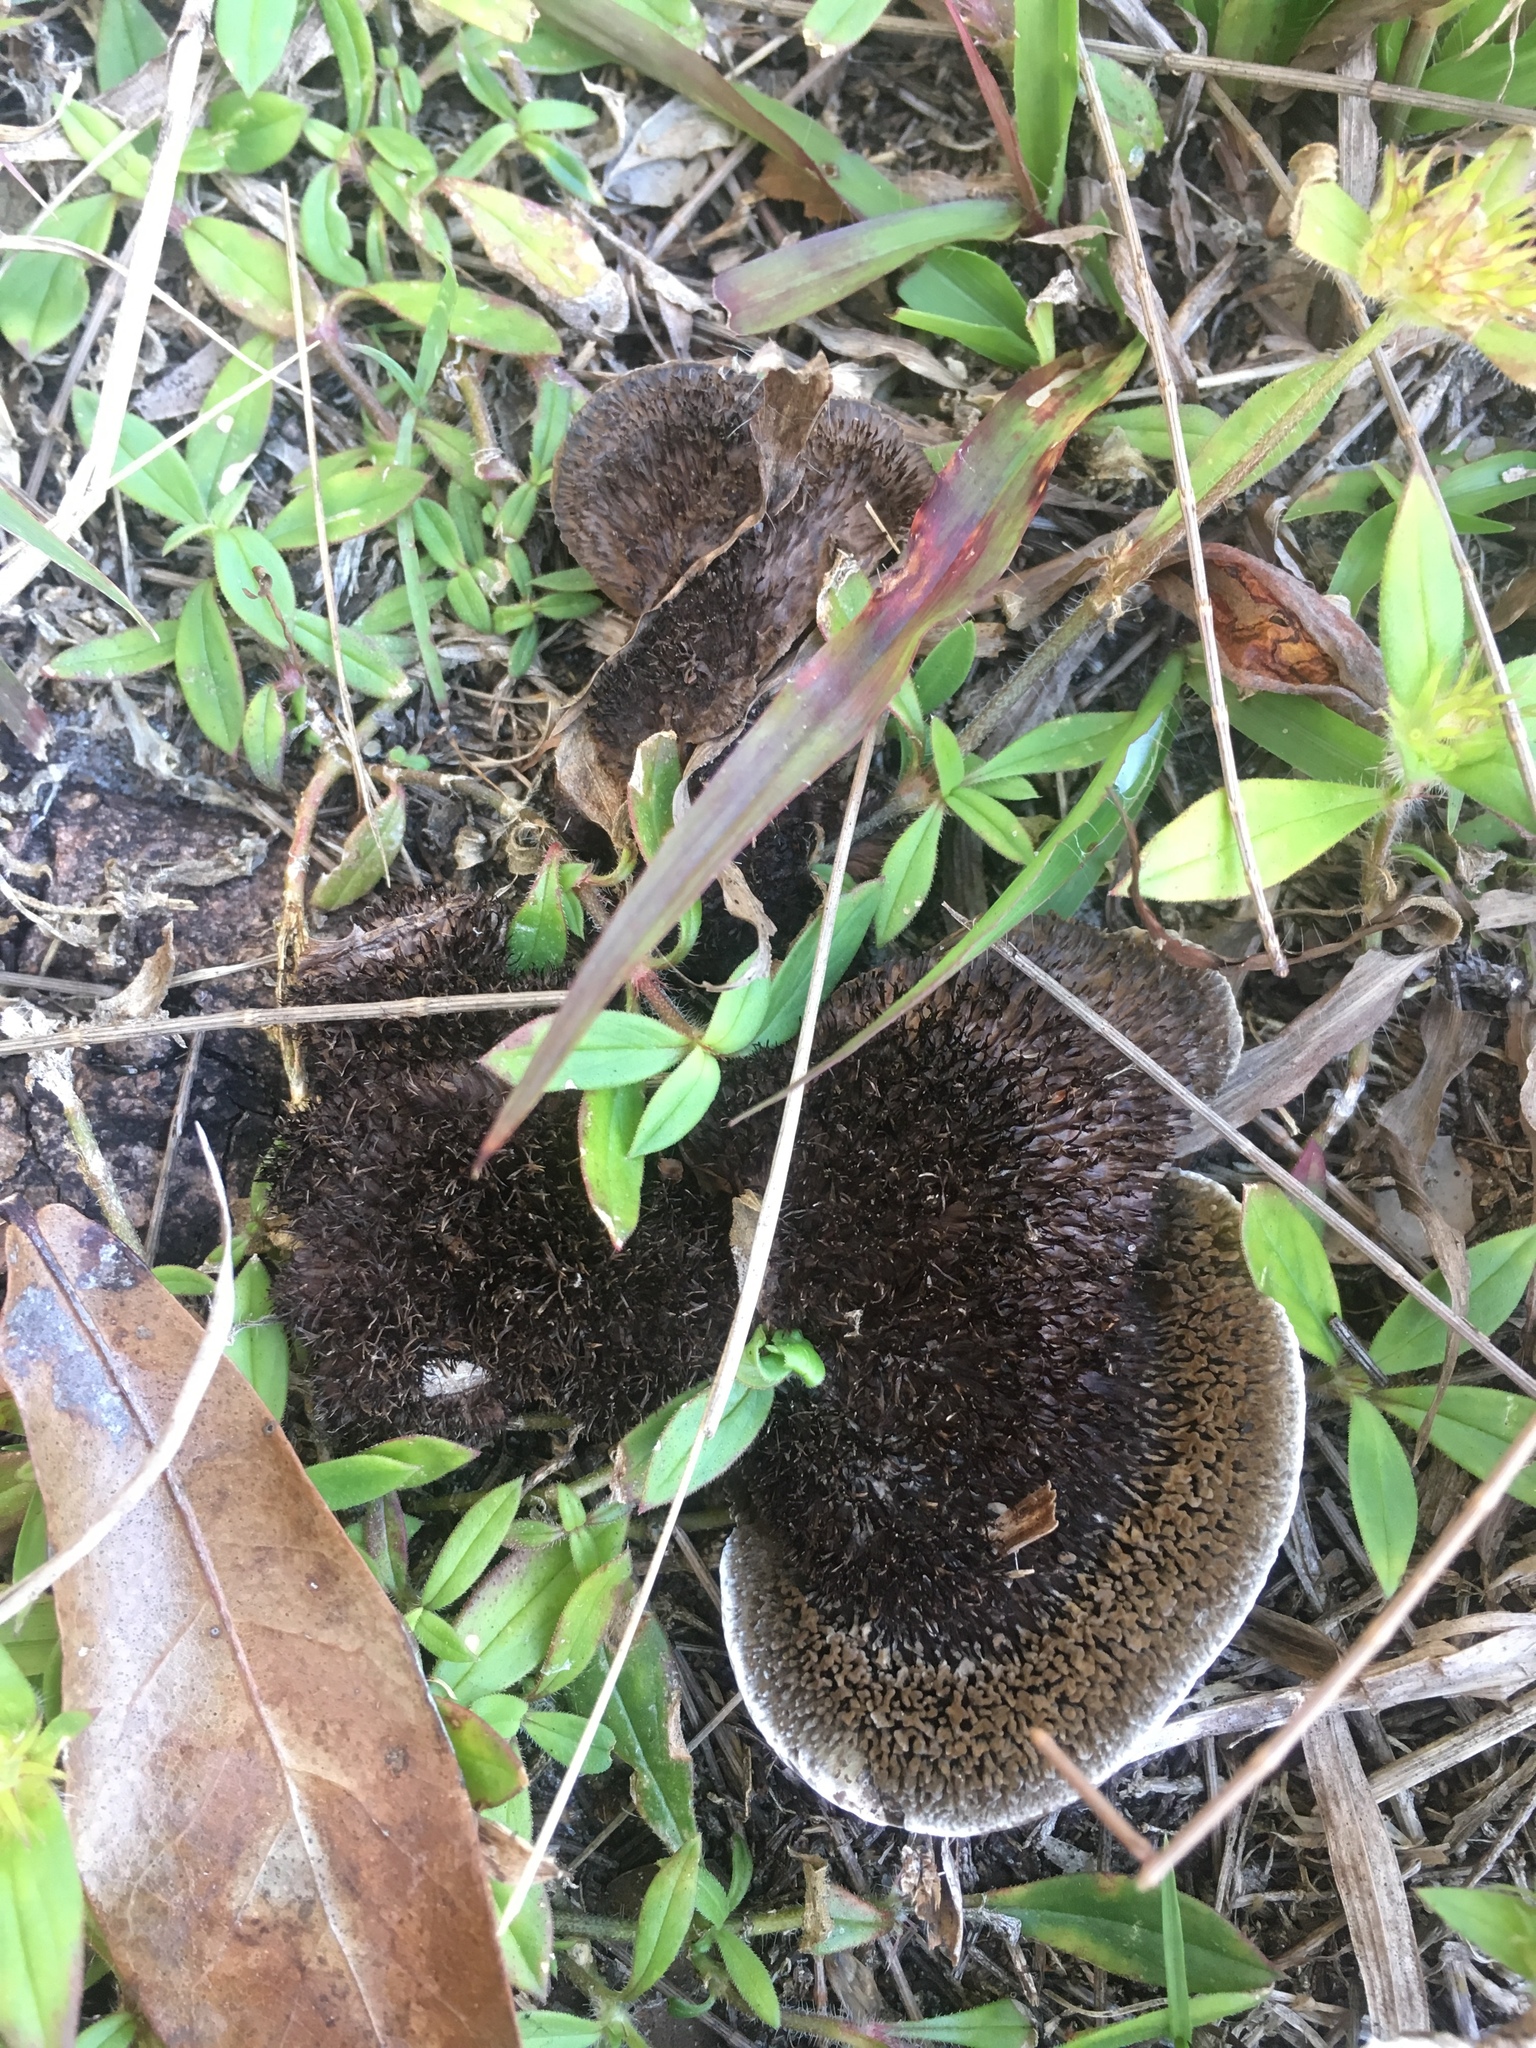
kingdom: Fungi
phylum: Basidiomycota
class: Agaricomycetes
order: Polyporales
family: Cerrenaceae
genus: Cerrena
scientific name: Cerrena hydnoides
